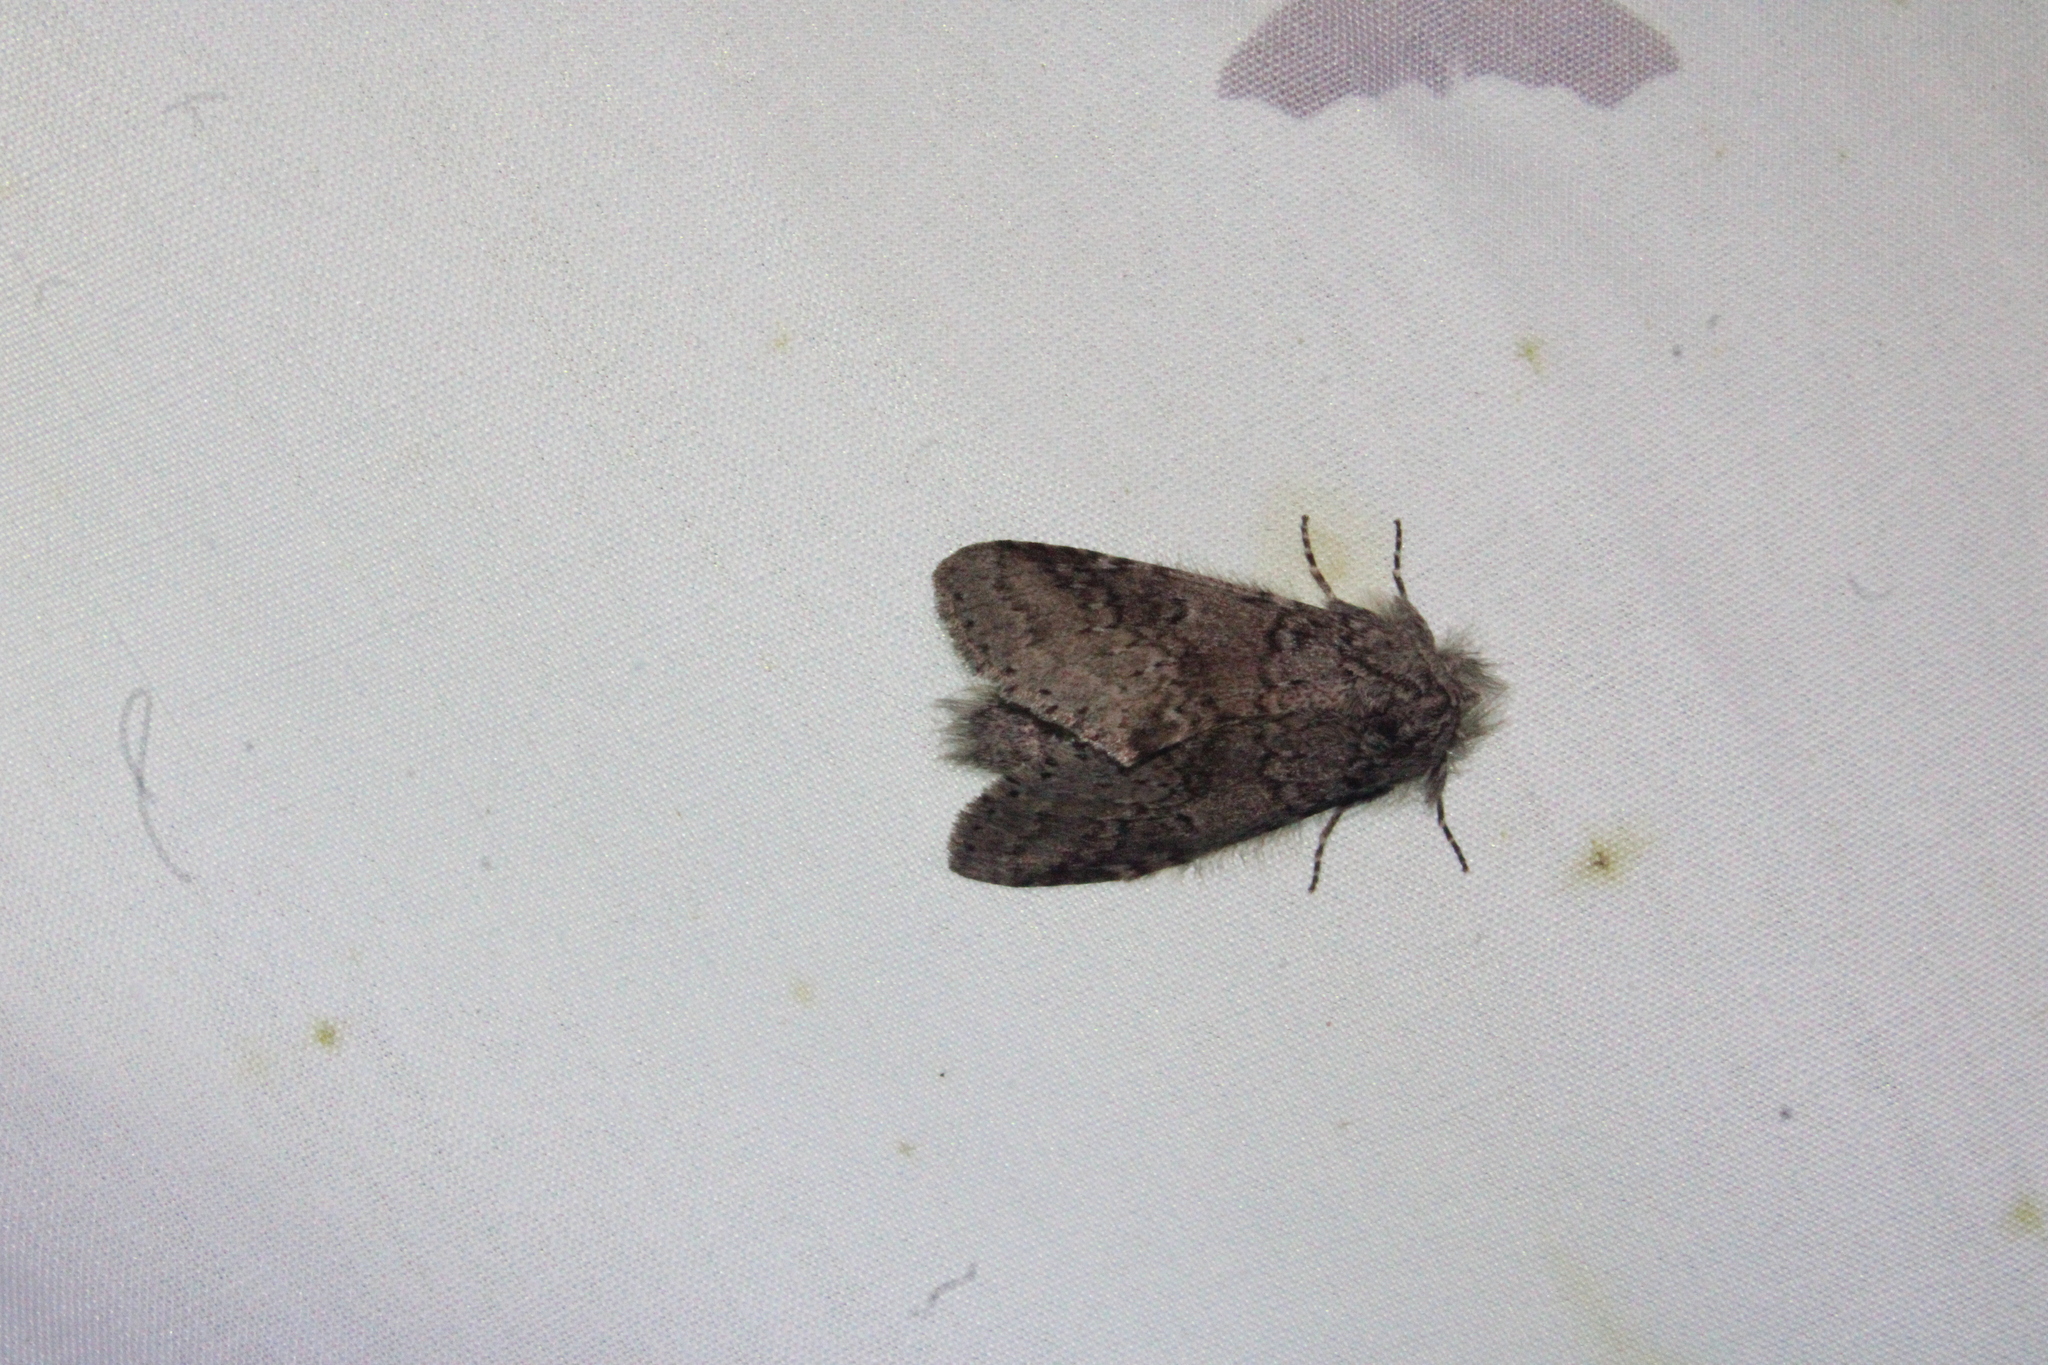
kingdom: Animalia
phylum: Arthropoda
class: Insecta
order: Lepidoptera
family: Notodontidae
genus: Lochmaeus
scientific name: Lochmaeus manteo
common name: Variable oakleaf caterpillar moth
